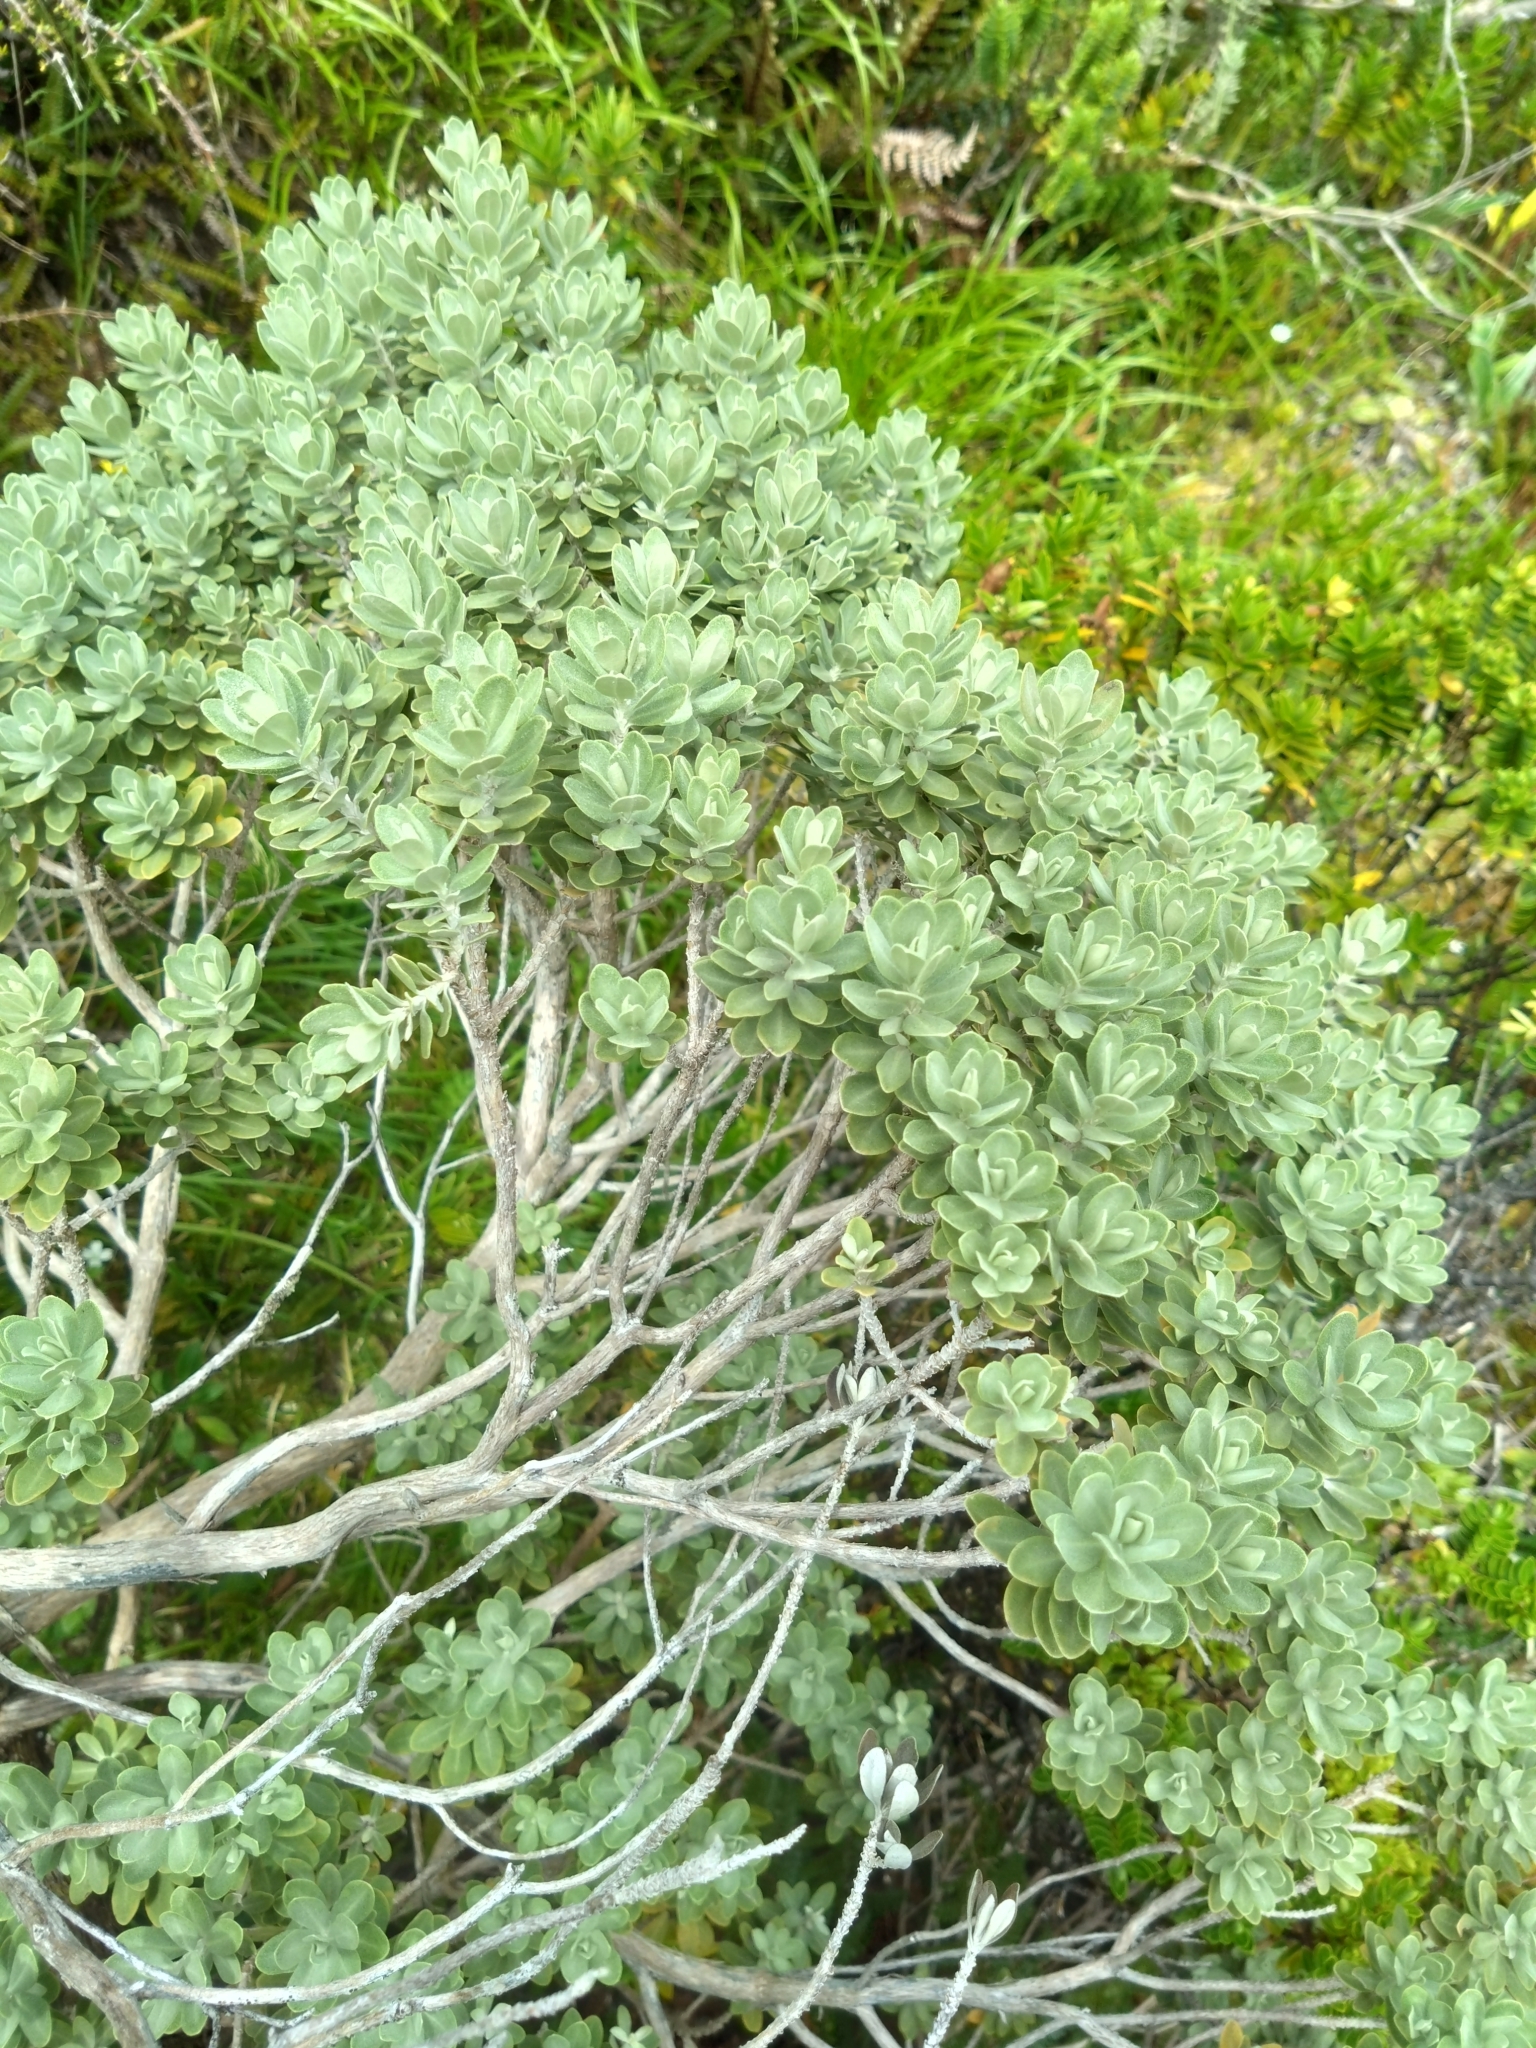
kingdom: Plantae
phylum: Tracheophyta
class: Magnoliopsida
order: Asterales
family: Asteraceae
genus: Olearia
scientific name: Olearia moschata
